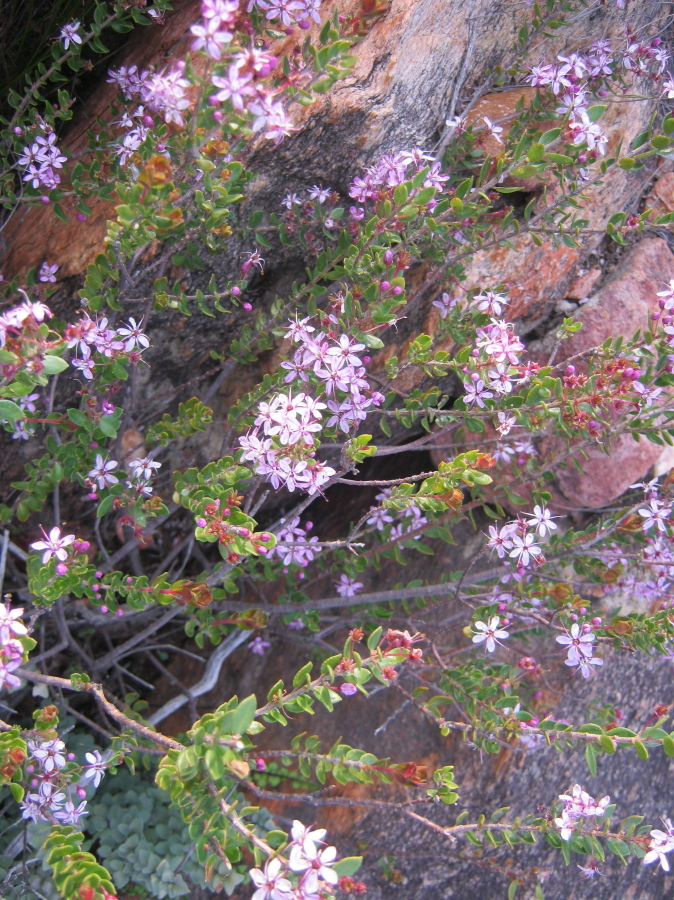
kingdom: Plantae
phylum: Tracheophyta
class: Magnoliopsida
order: Sapindales
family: Rutaceae
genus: Agathosma
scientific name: Agathosma ovata
